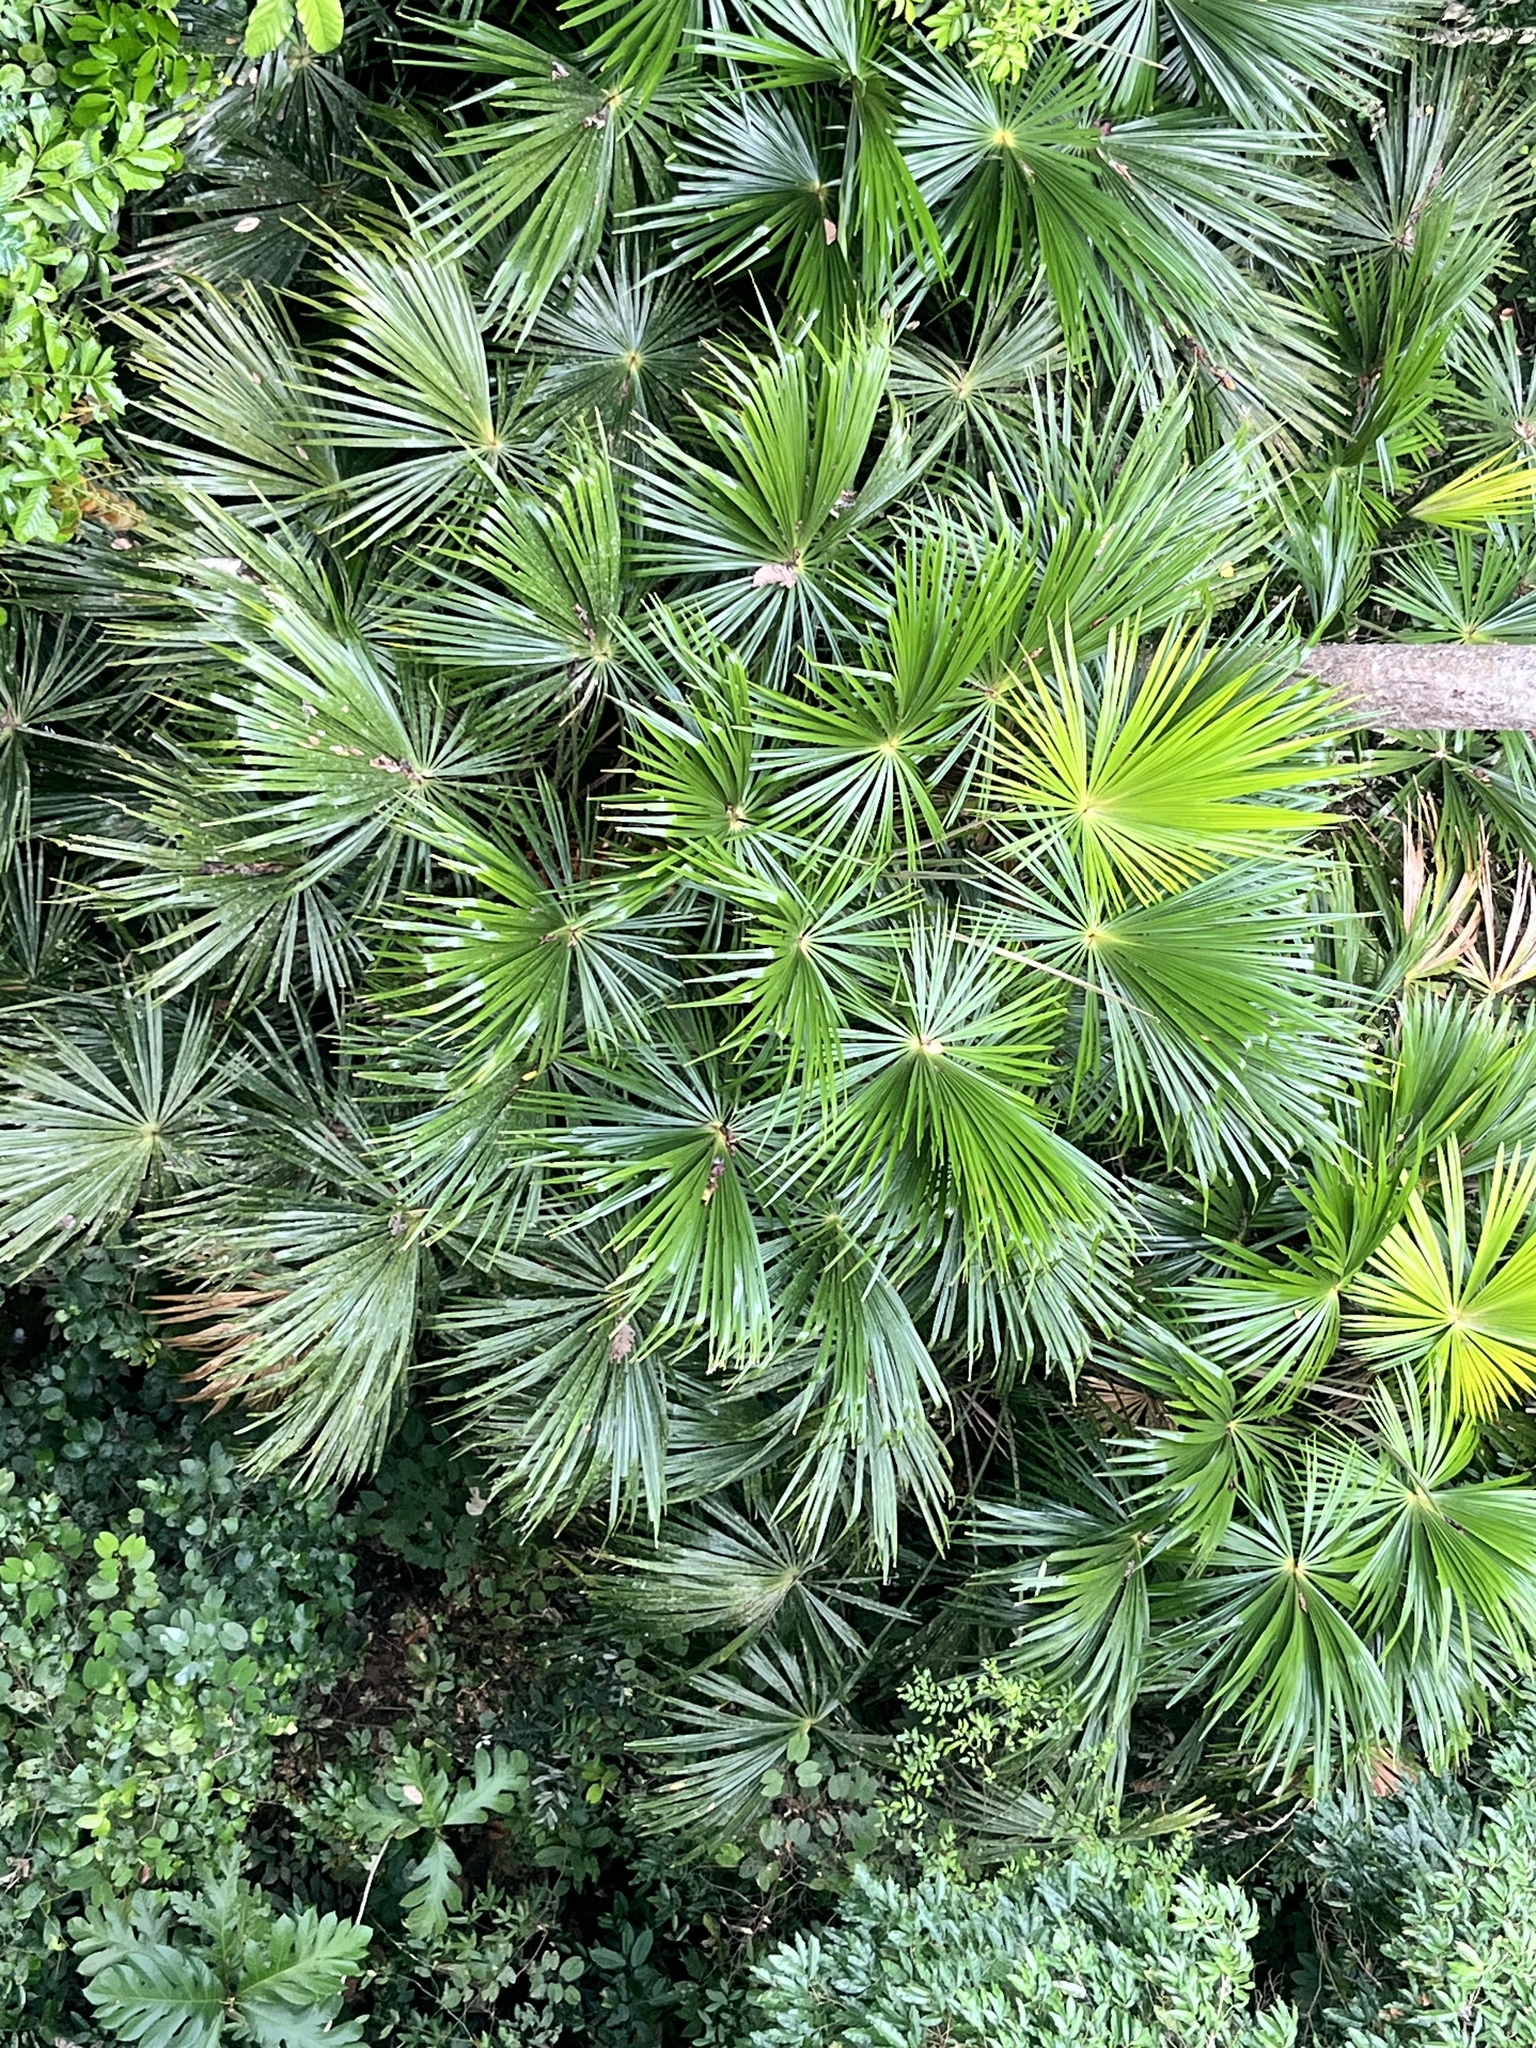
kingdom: Plantae
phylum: Tracheophyta
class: Liliopsida
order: Arecales
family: Arecaceae
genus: Pholidocarpus
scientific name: Pholidocarpus majadum
